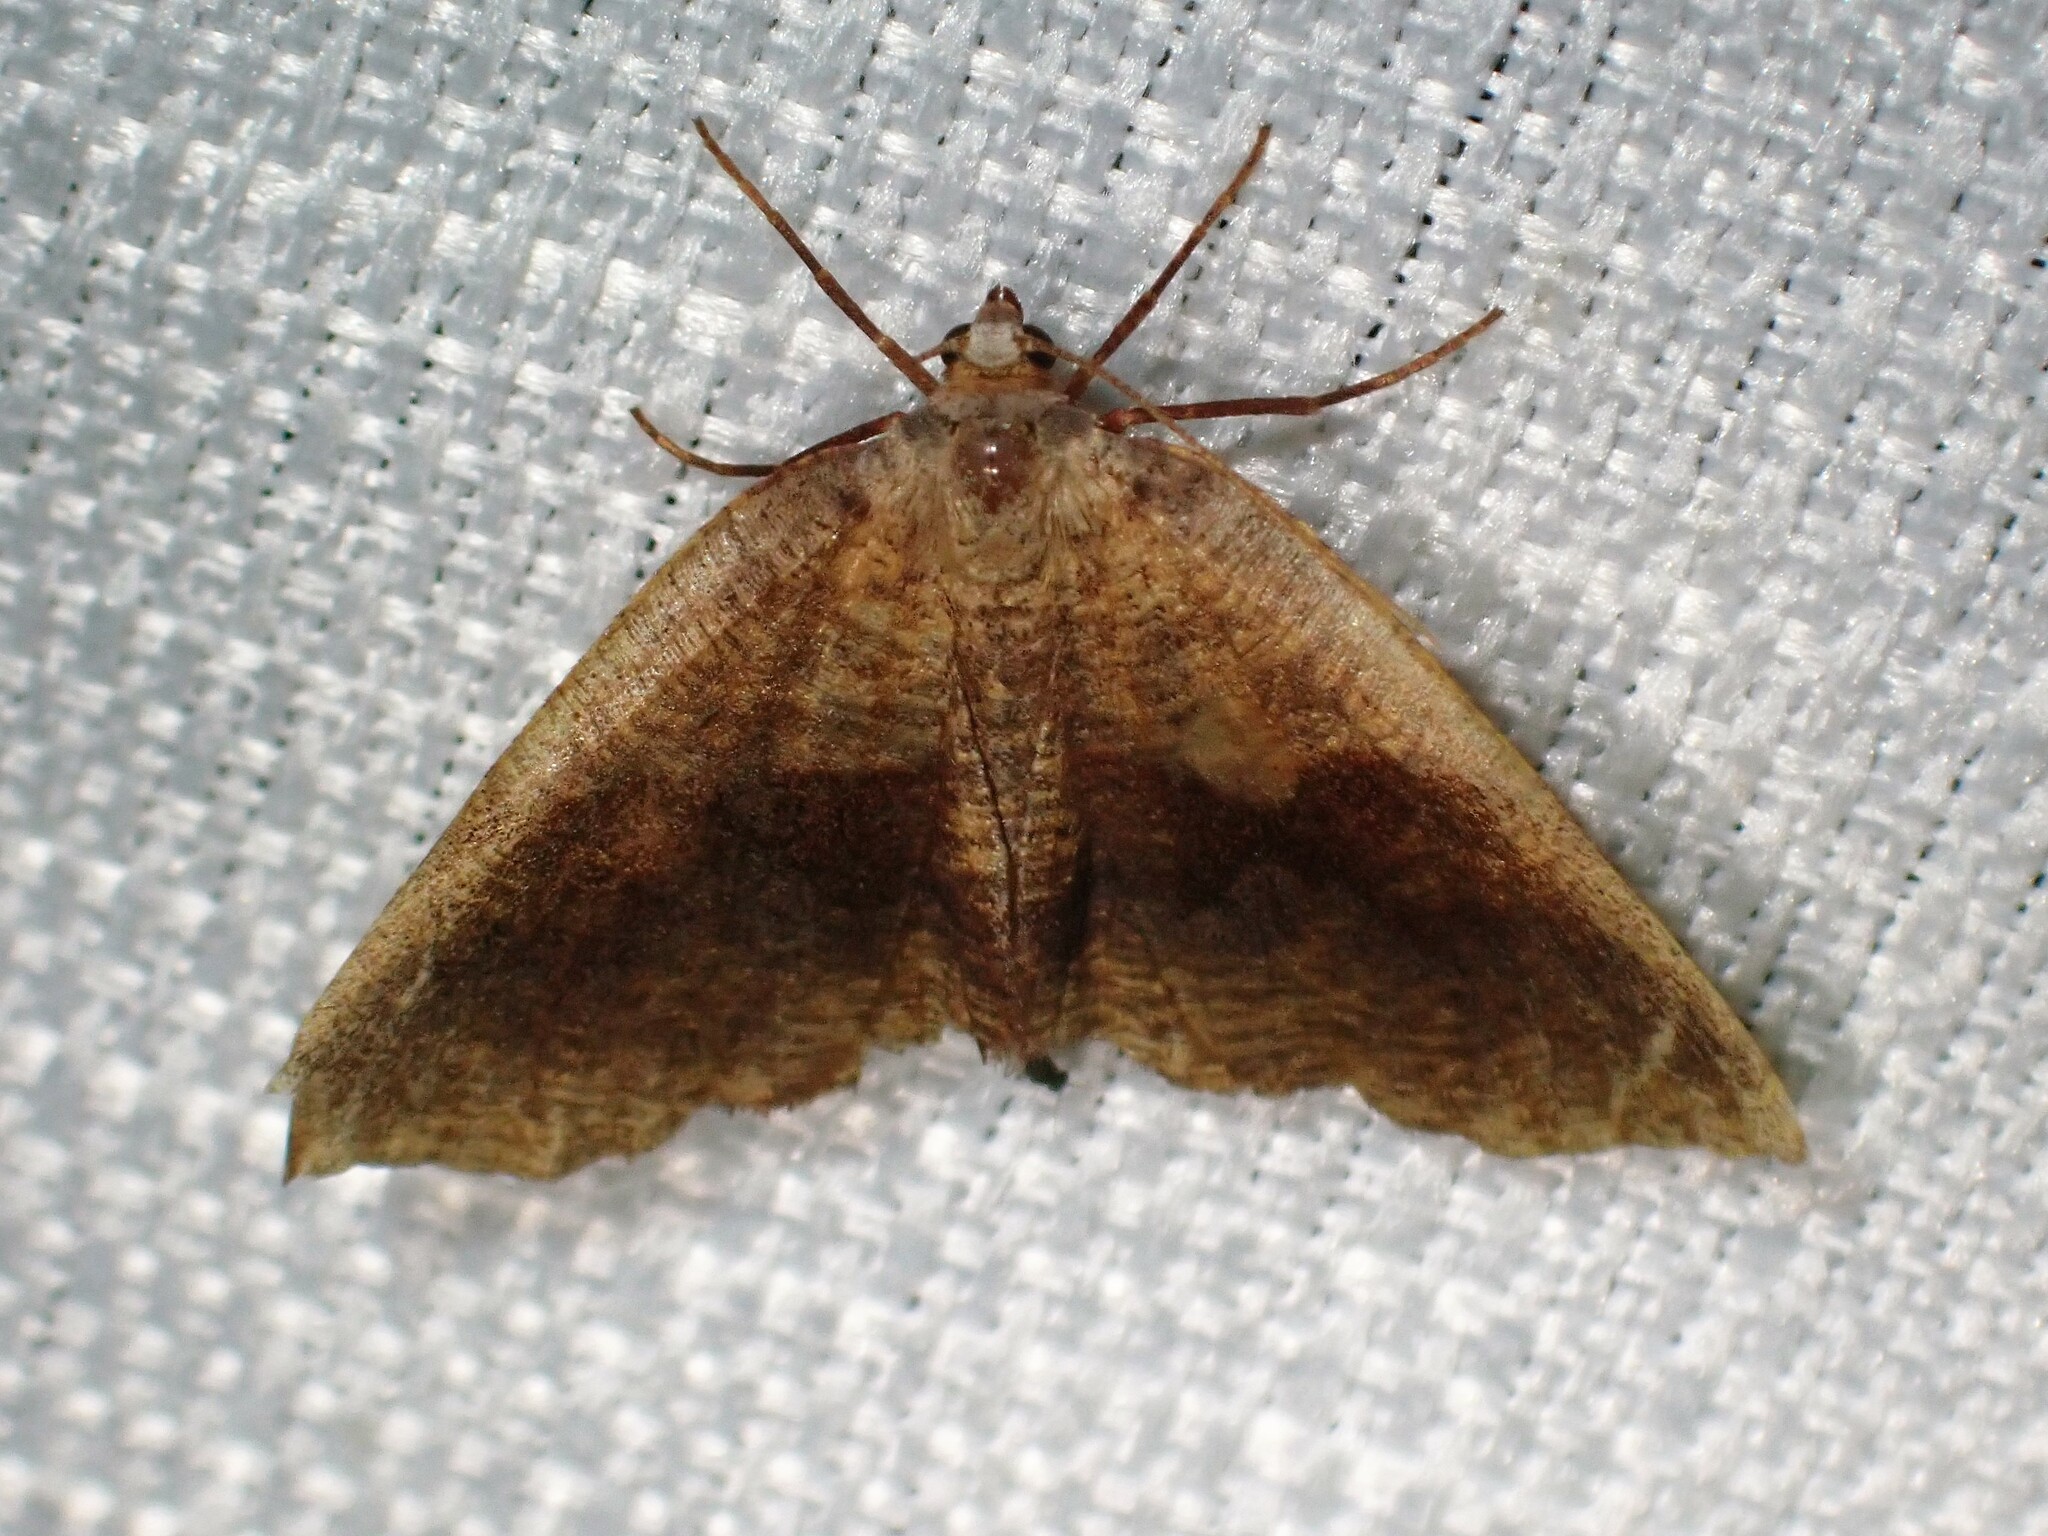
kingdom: Animalia
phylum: Arthropoda
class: Insecta
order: Lepidoptera
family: Geometridae
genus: Plagodis
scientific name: Plagodis pulveraria
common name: Barred umber
